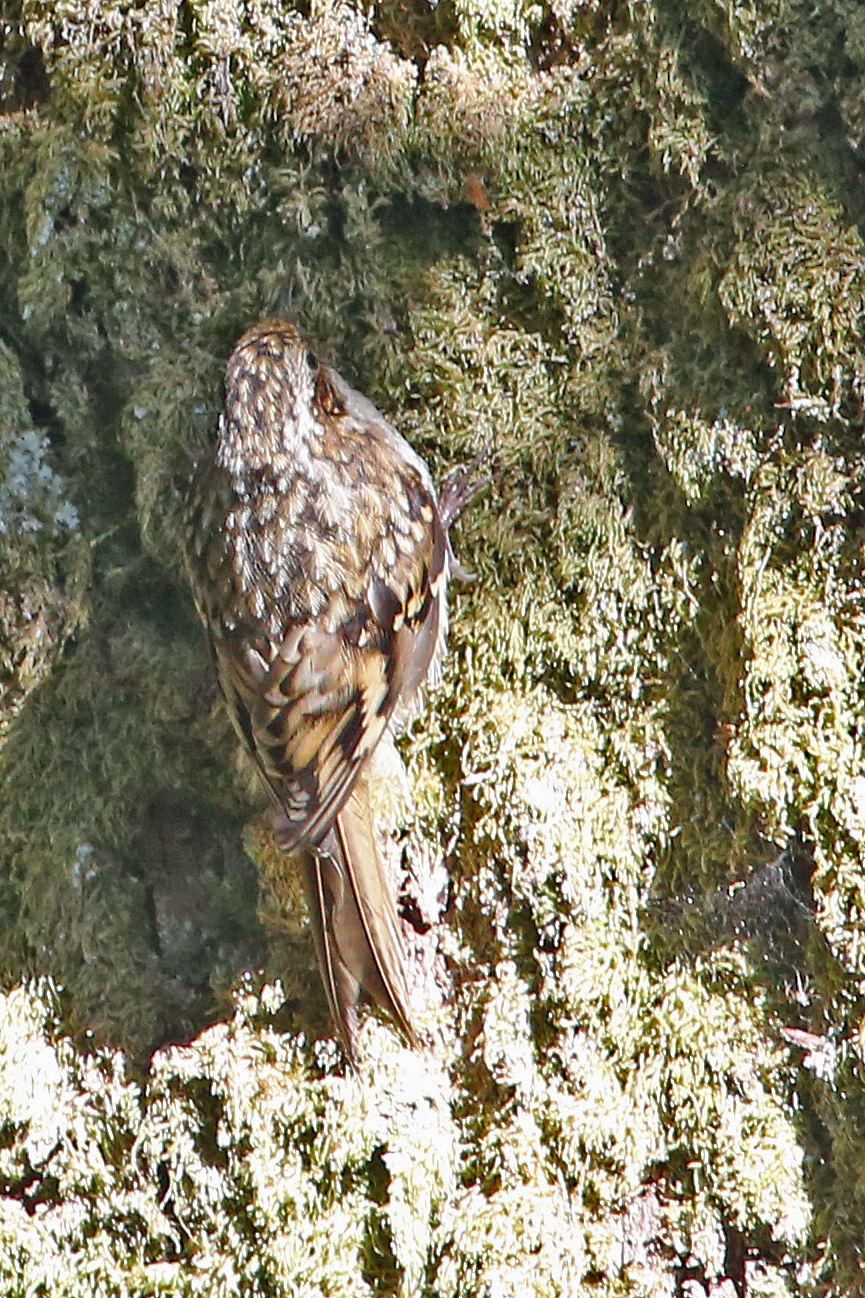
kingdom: Animalia
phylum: Chordata
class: Aves
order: Passeriformes
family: Certhiidae
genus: Certhia
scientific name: Certhia familiaris
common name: Eurasian treecreeper
